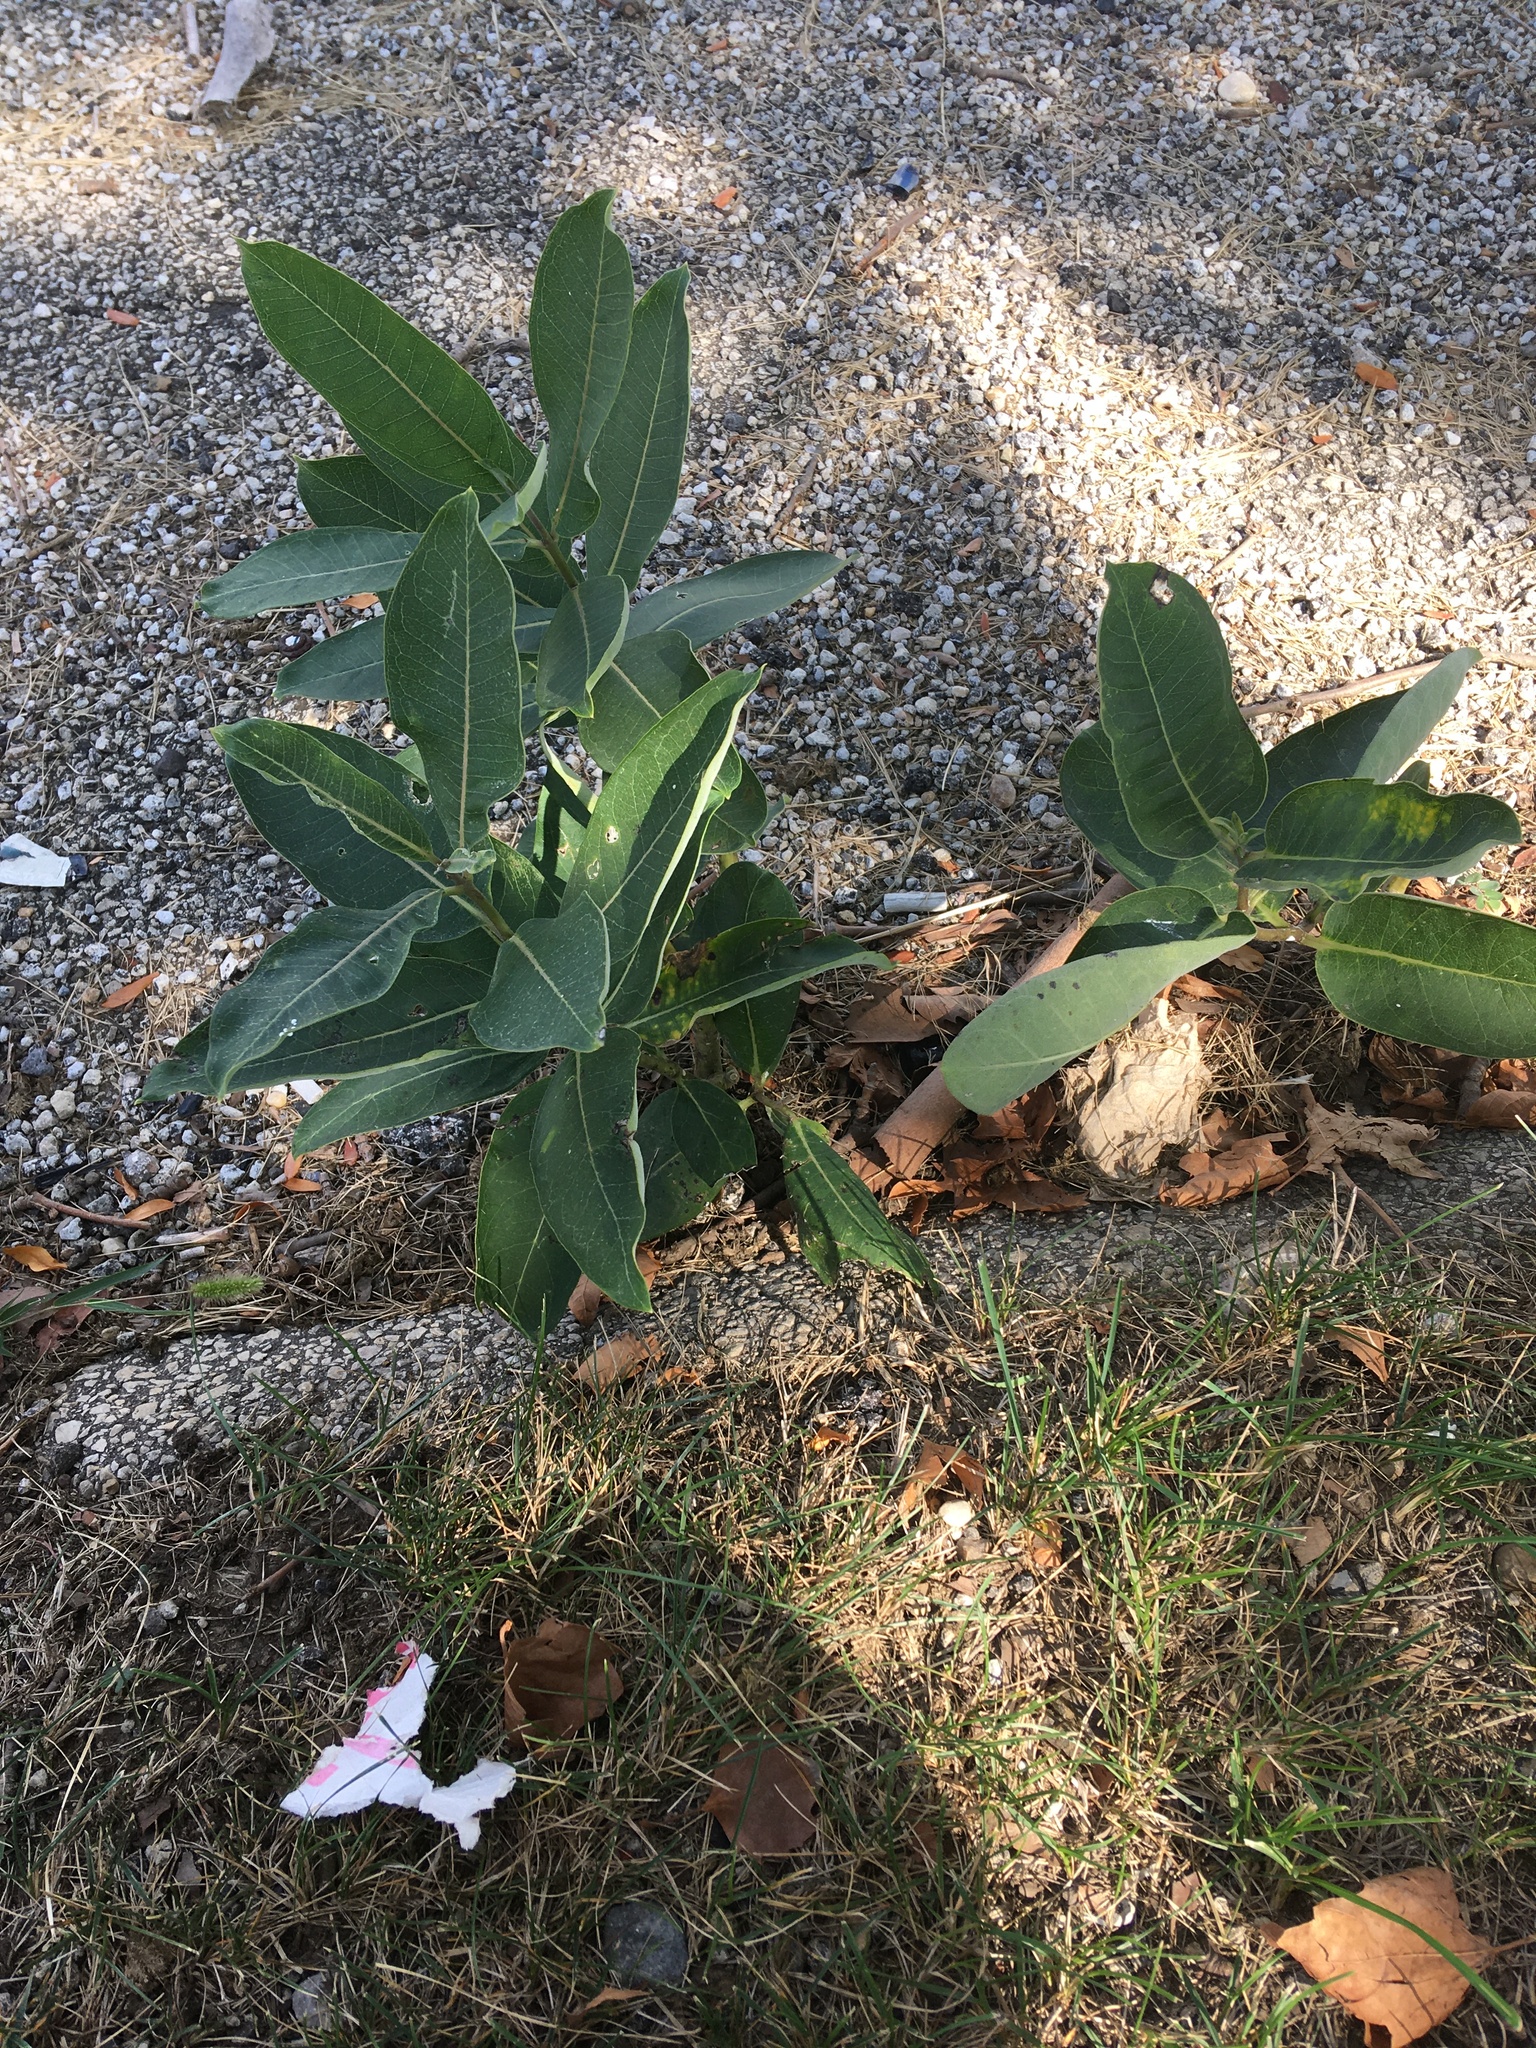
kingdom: Plantae
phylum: Tracheophyta
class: Magnoliopsida
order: Gentianales
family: Apocynaceae
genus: Asclepias
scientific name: Asclepias syriaca
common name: Common milkweed
